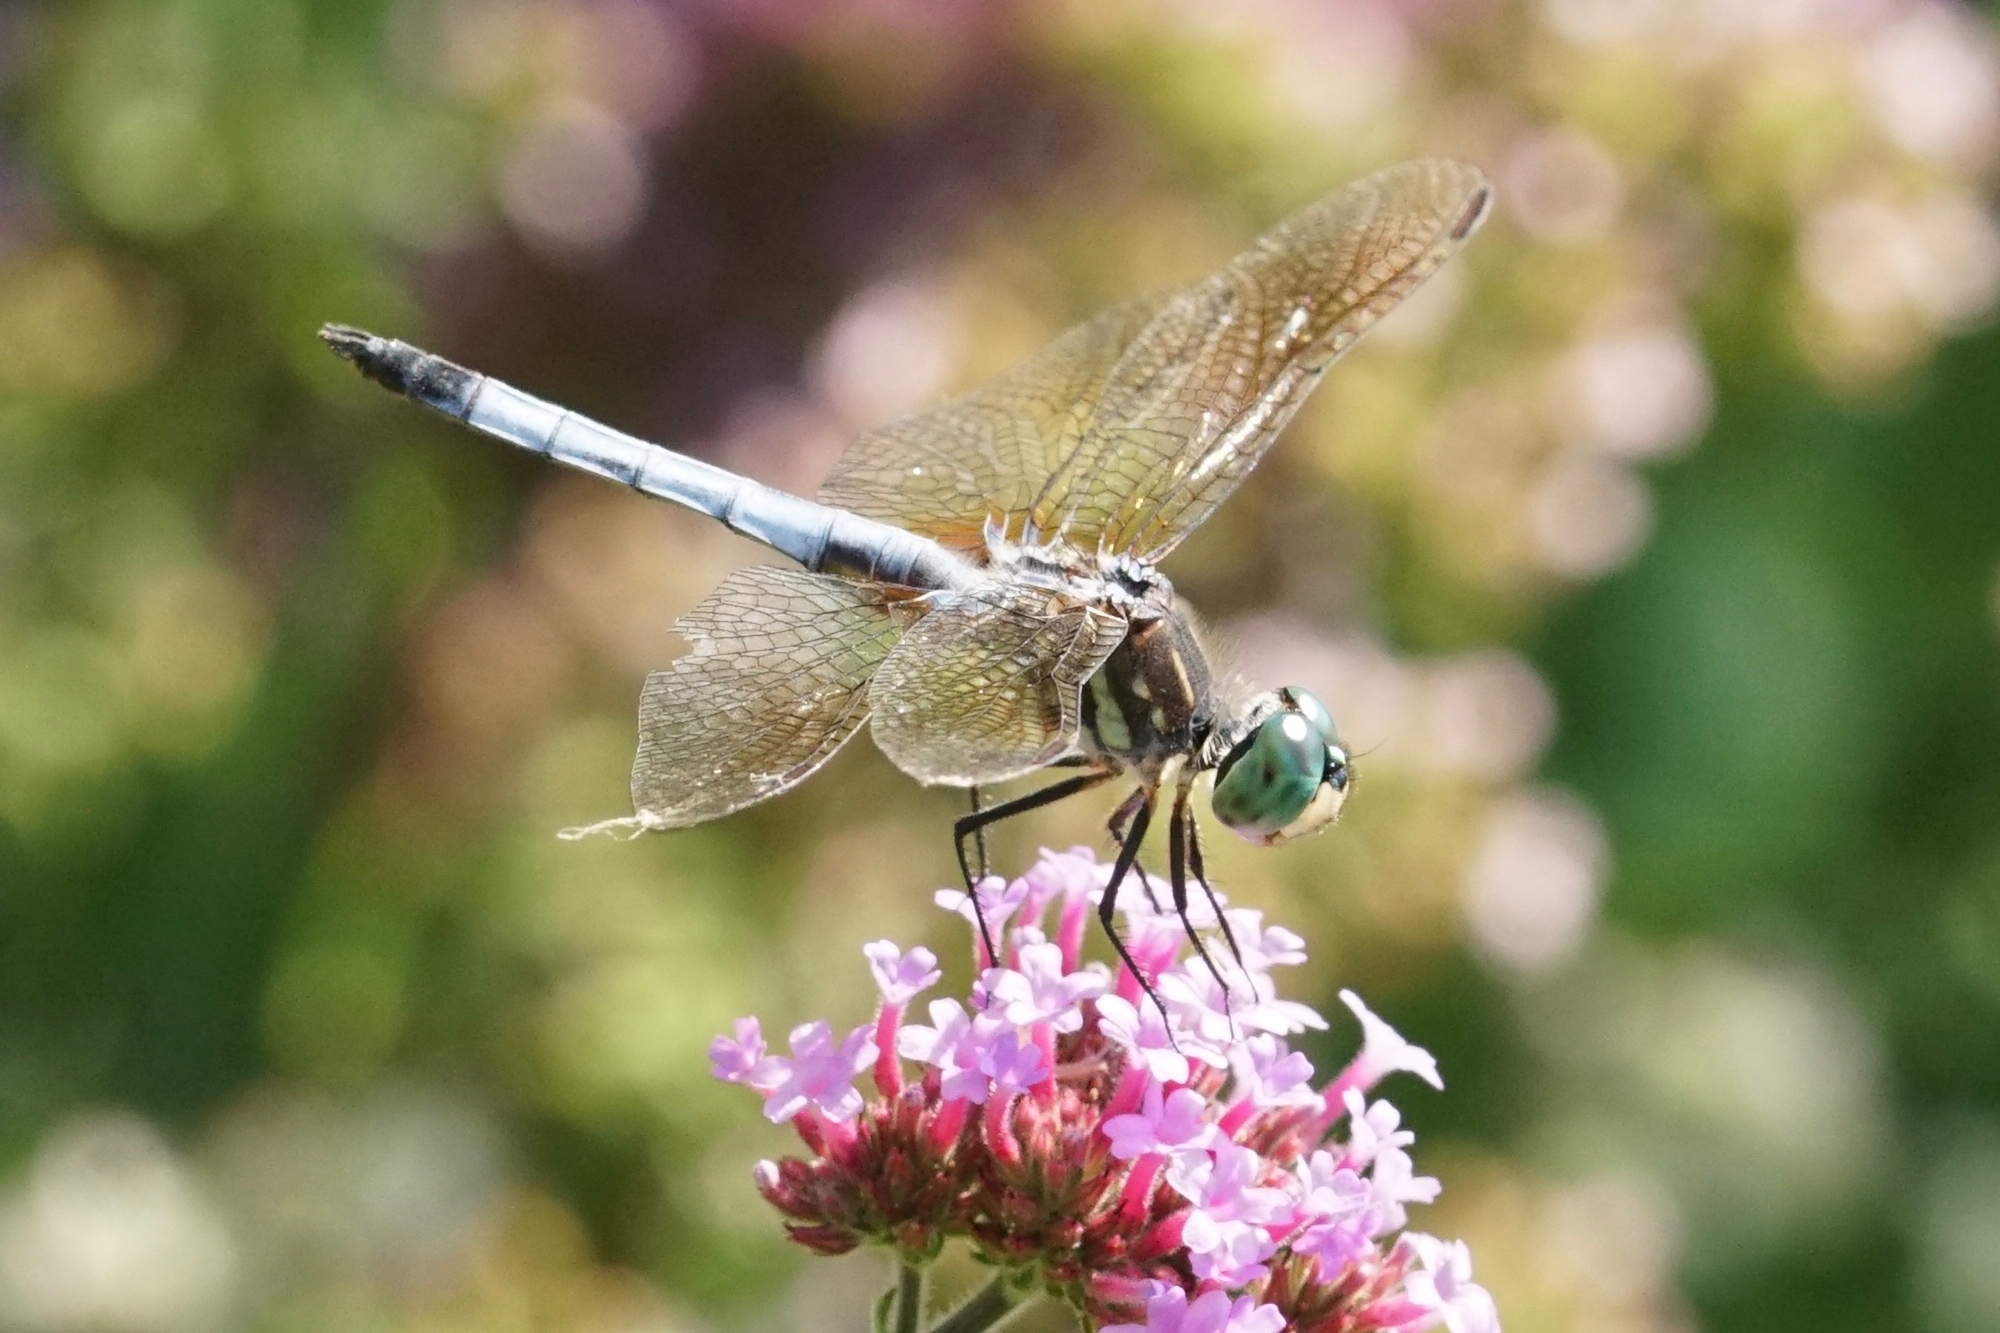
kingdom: Animalia
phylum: Arthropoda
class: Insecta
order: Odonata
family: Libellulidae
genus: Pachydiplax
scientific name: Pachydiplax longipennis
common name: Blue dasher
